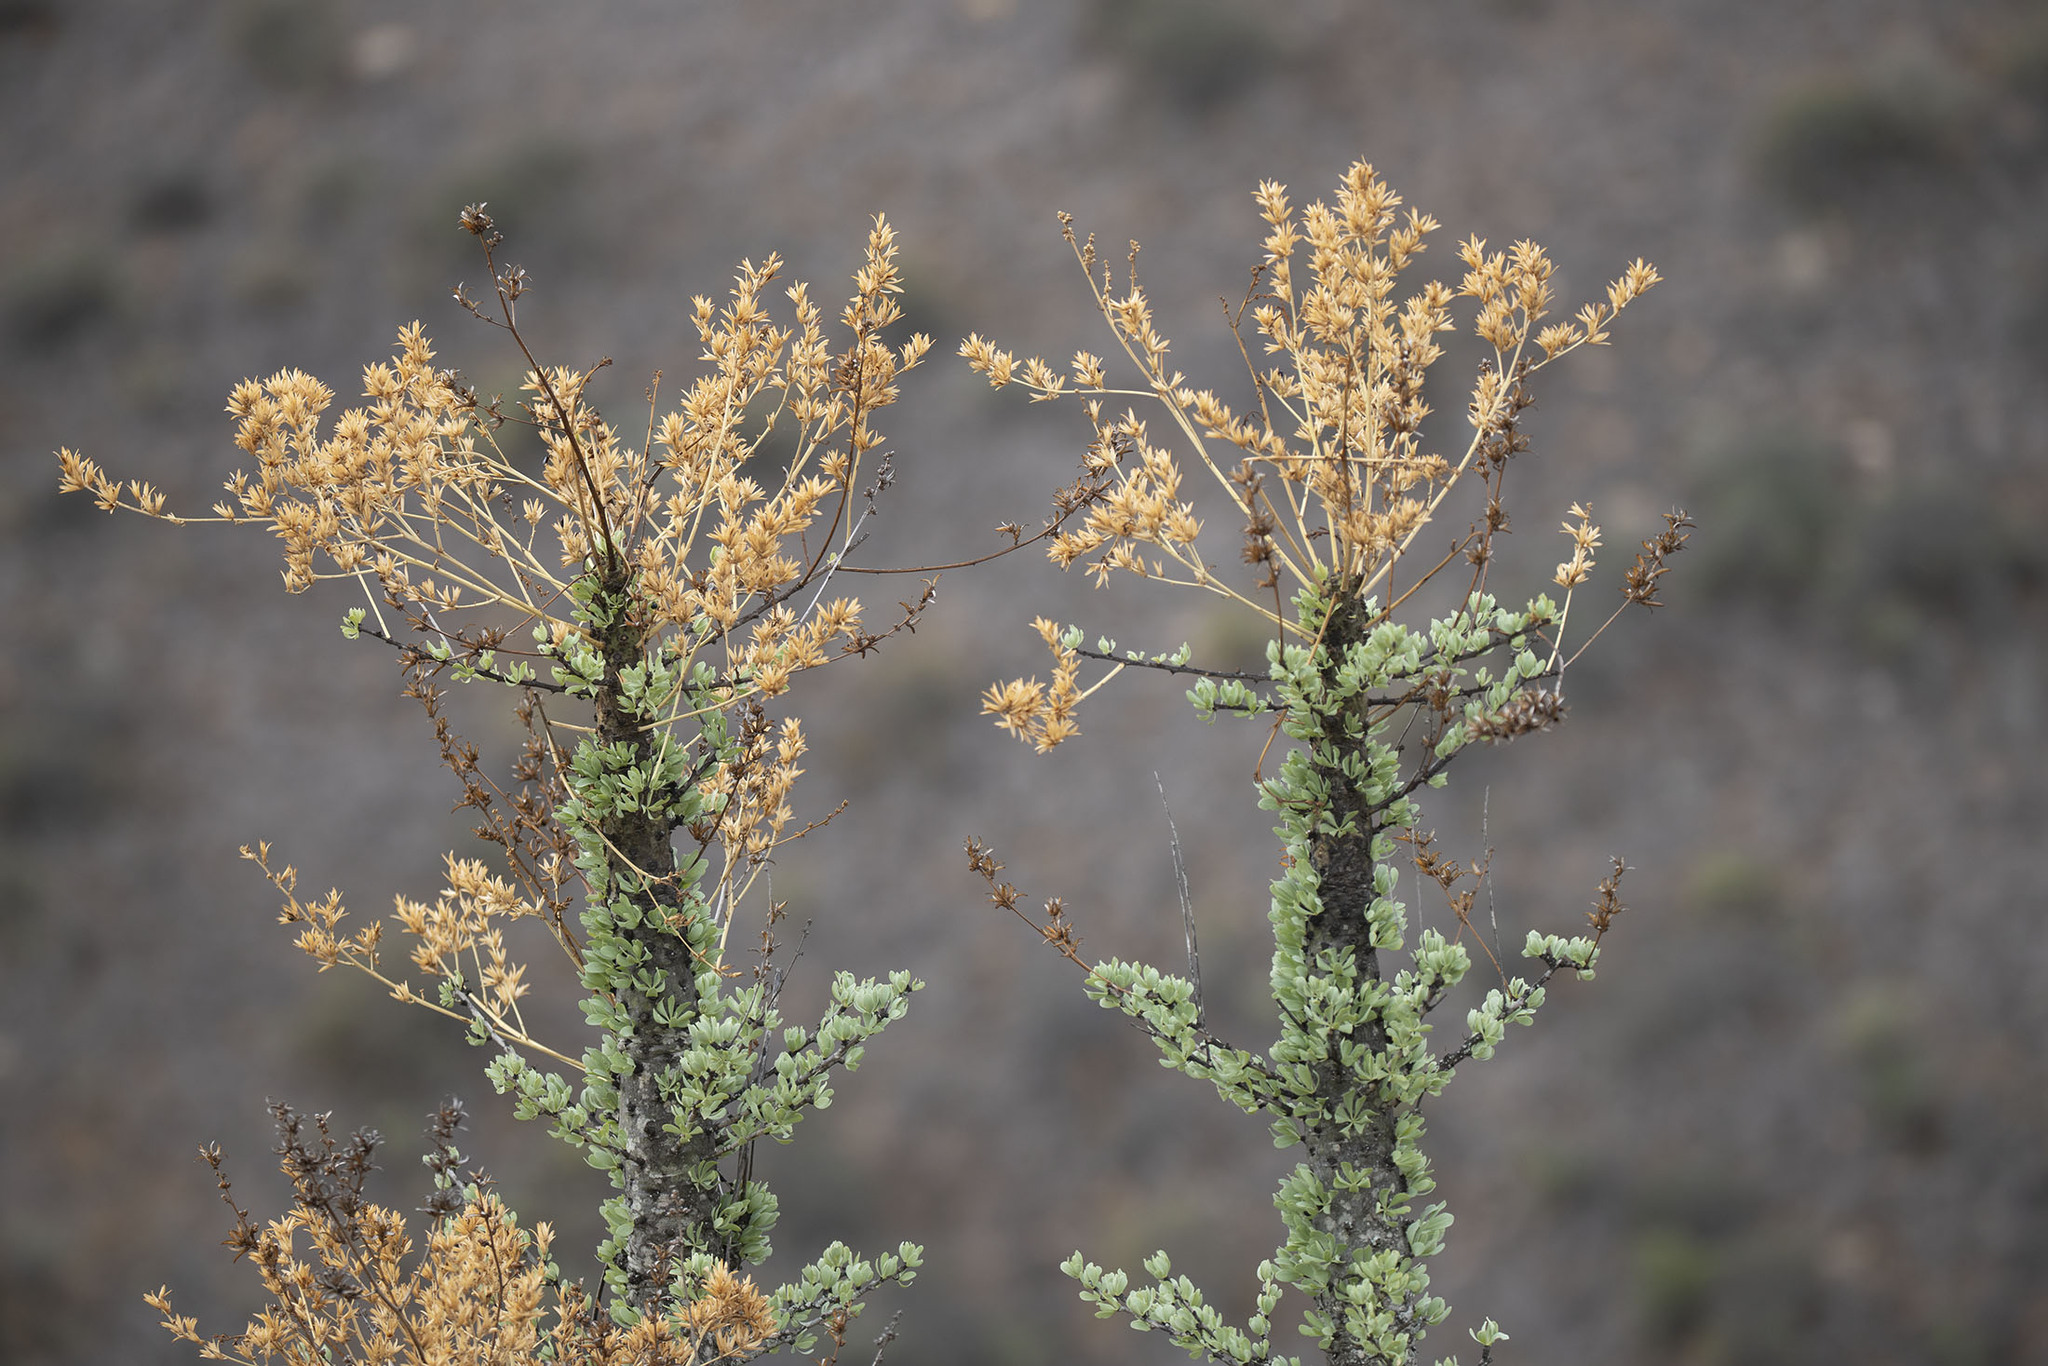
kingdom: Plantae
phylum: Tracheophyta
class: Magnoliopsida
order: Ericales
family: Fouquieriaceae
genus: Fouquieria
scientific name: Fouquieria columnaris
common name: Boojumtree
